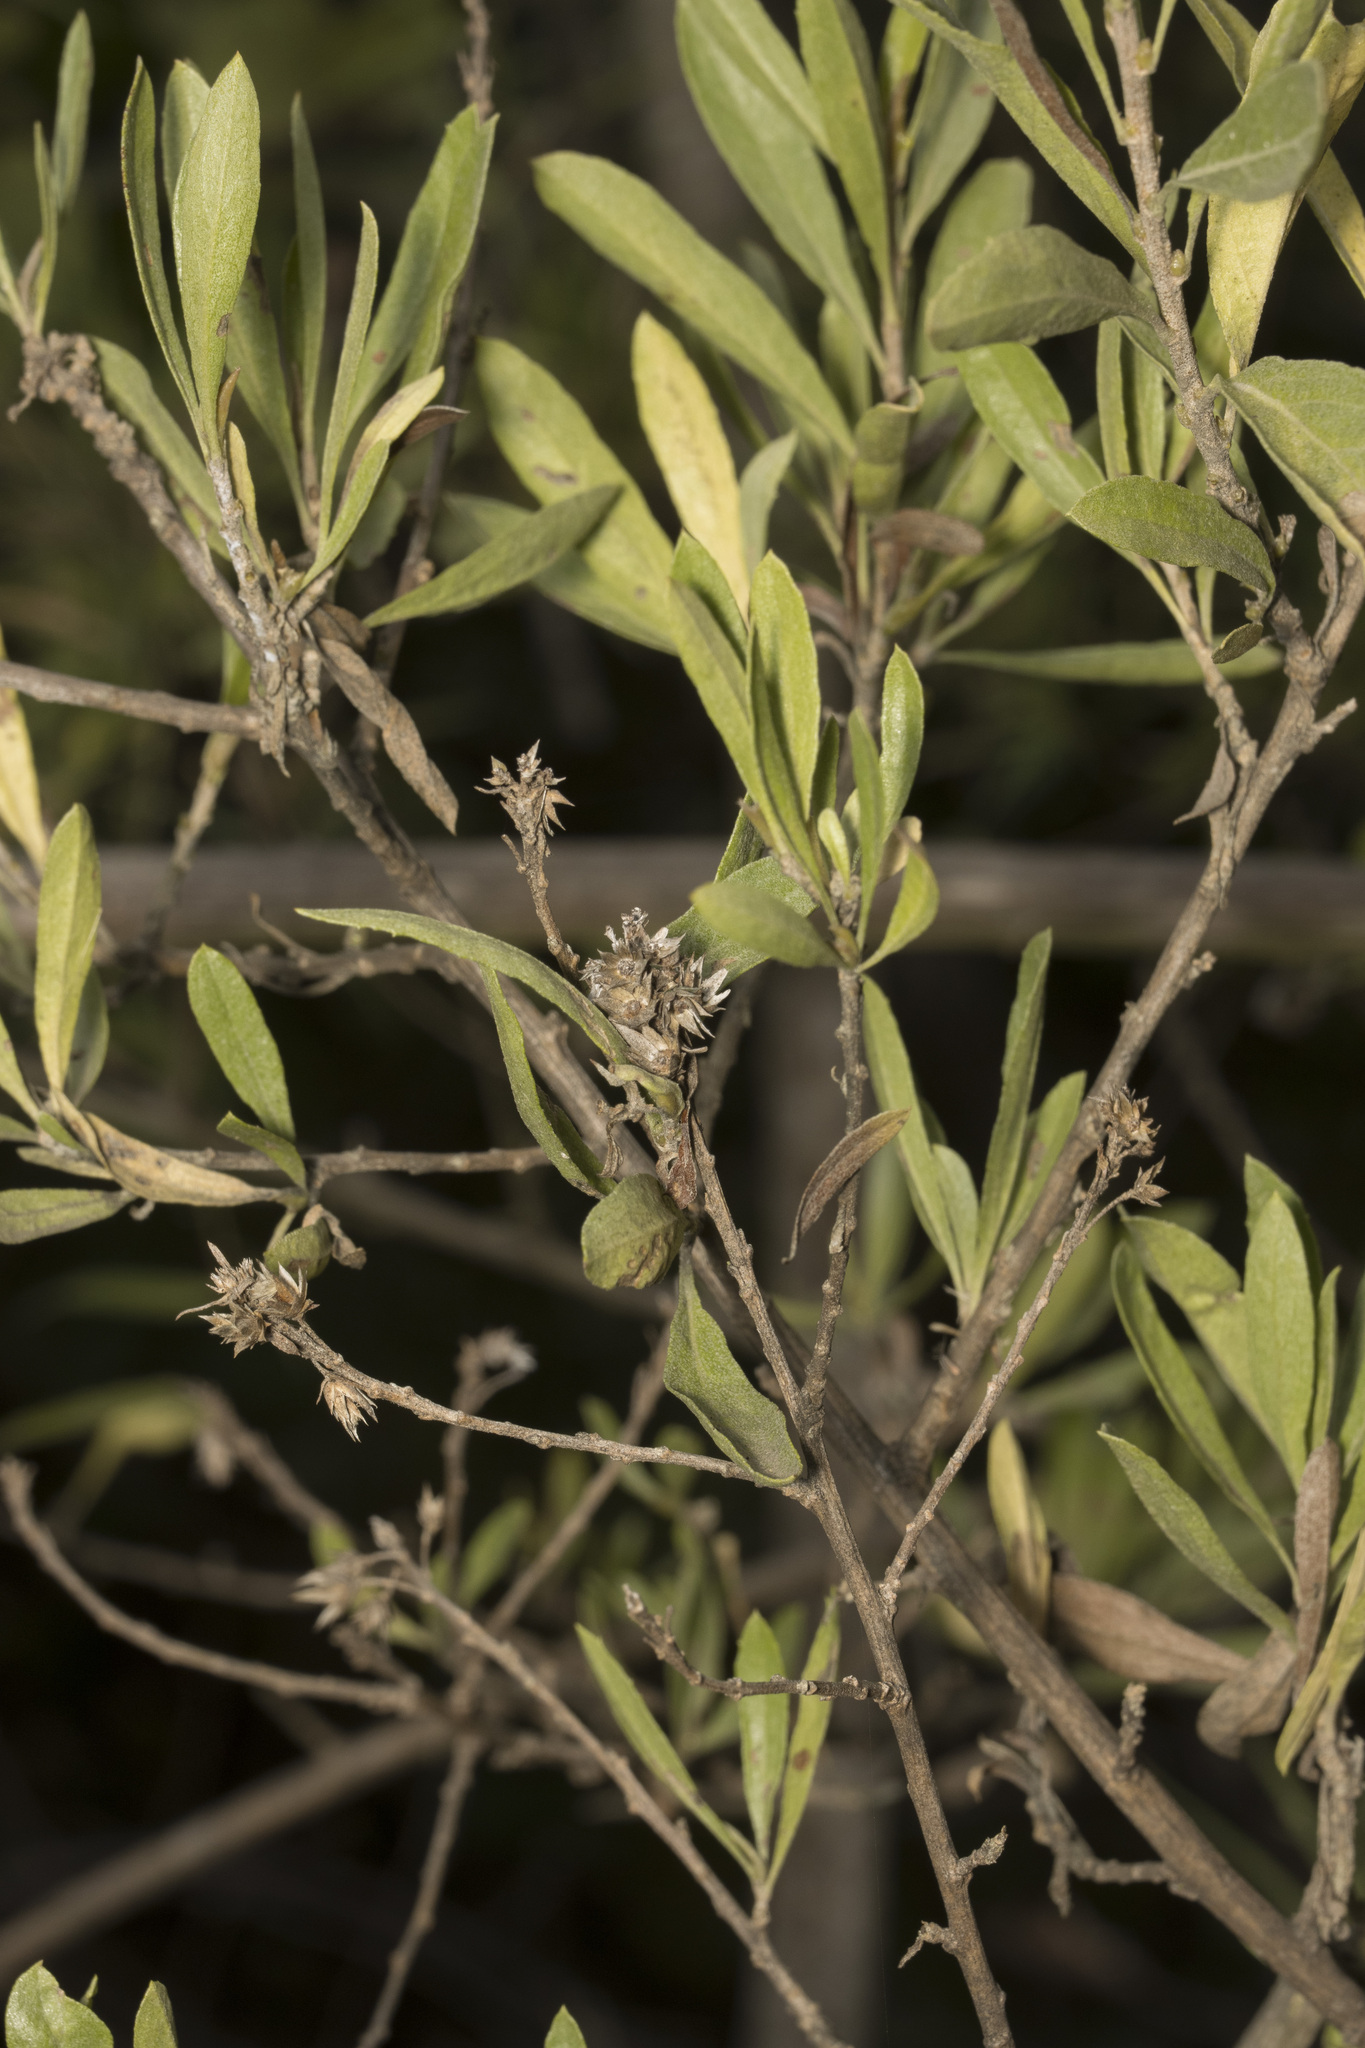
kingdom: Plantae
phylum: Tracheophyta
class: Magnoliopsida
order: Asterales
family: Asteraceae
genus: Gochnatia
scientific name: Gochnatia foliolosa
